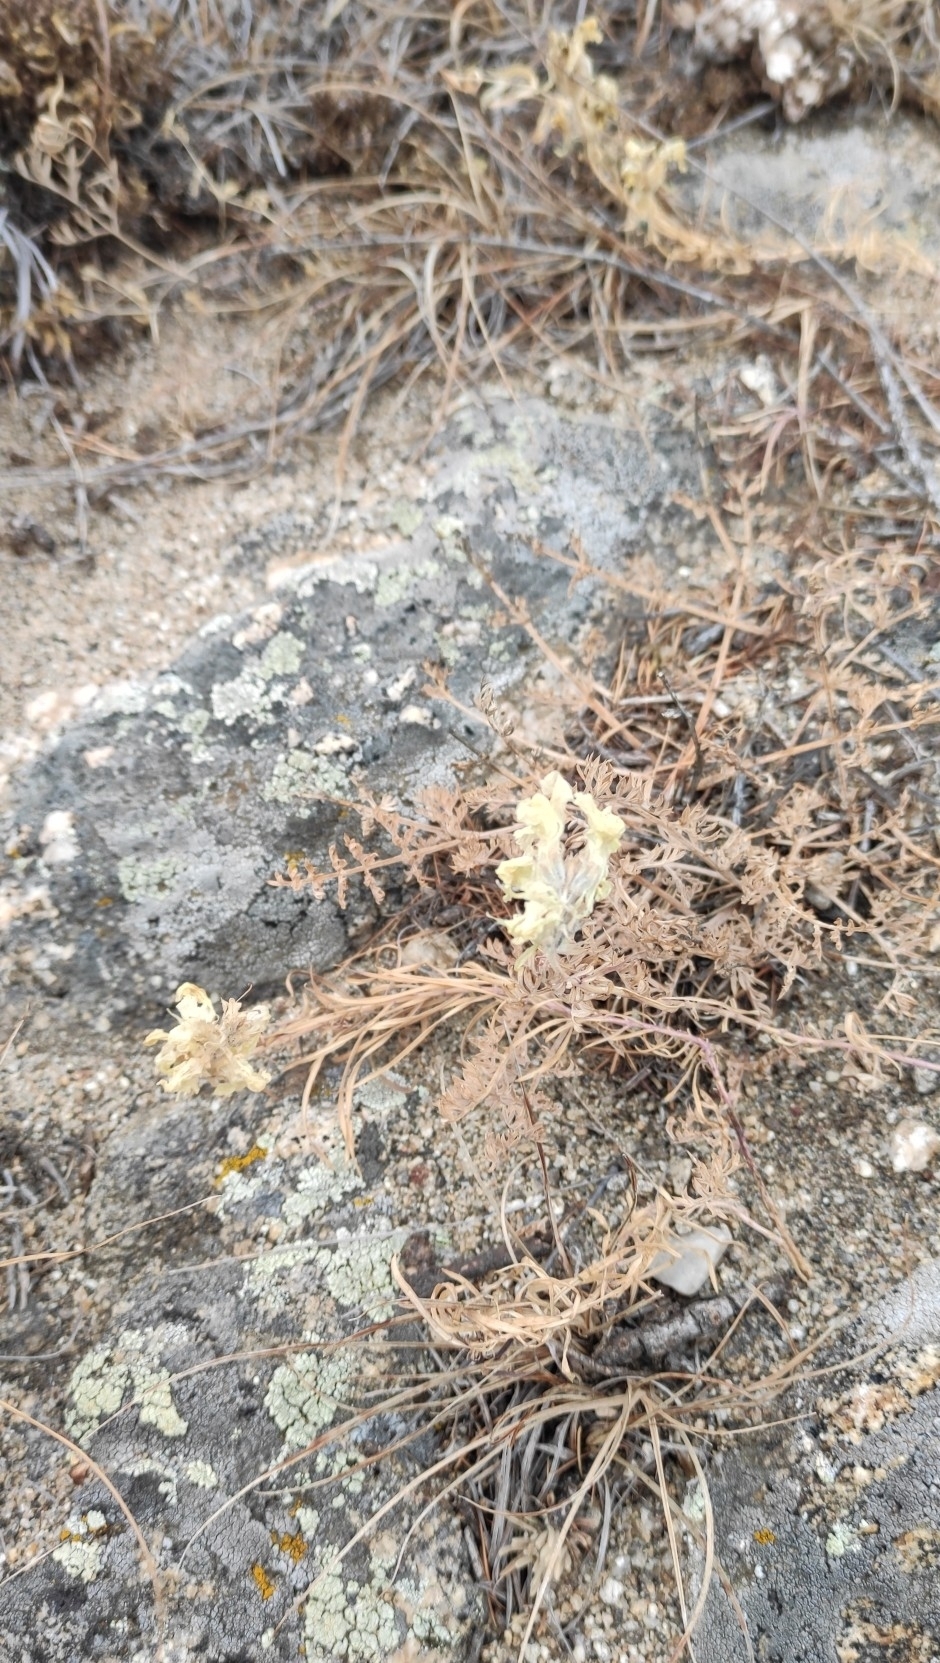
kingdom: Plantae
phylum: Tracheophyta
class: Magnoliopsida
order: Lamiales
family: Plantaginaceae
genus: Linaria
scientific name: Linaria buriatica
